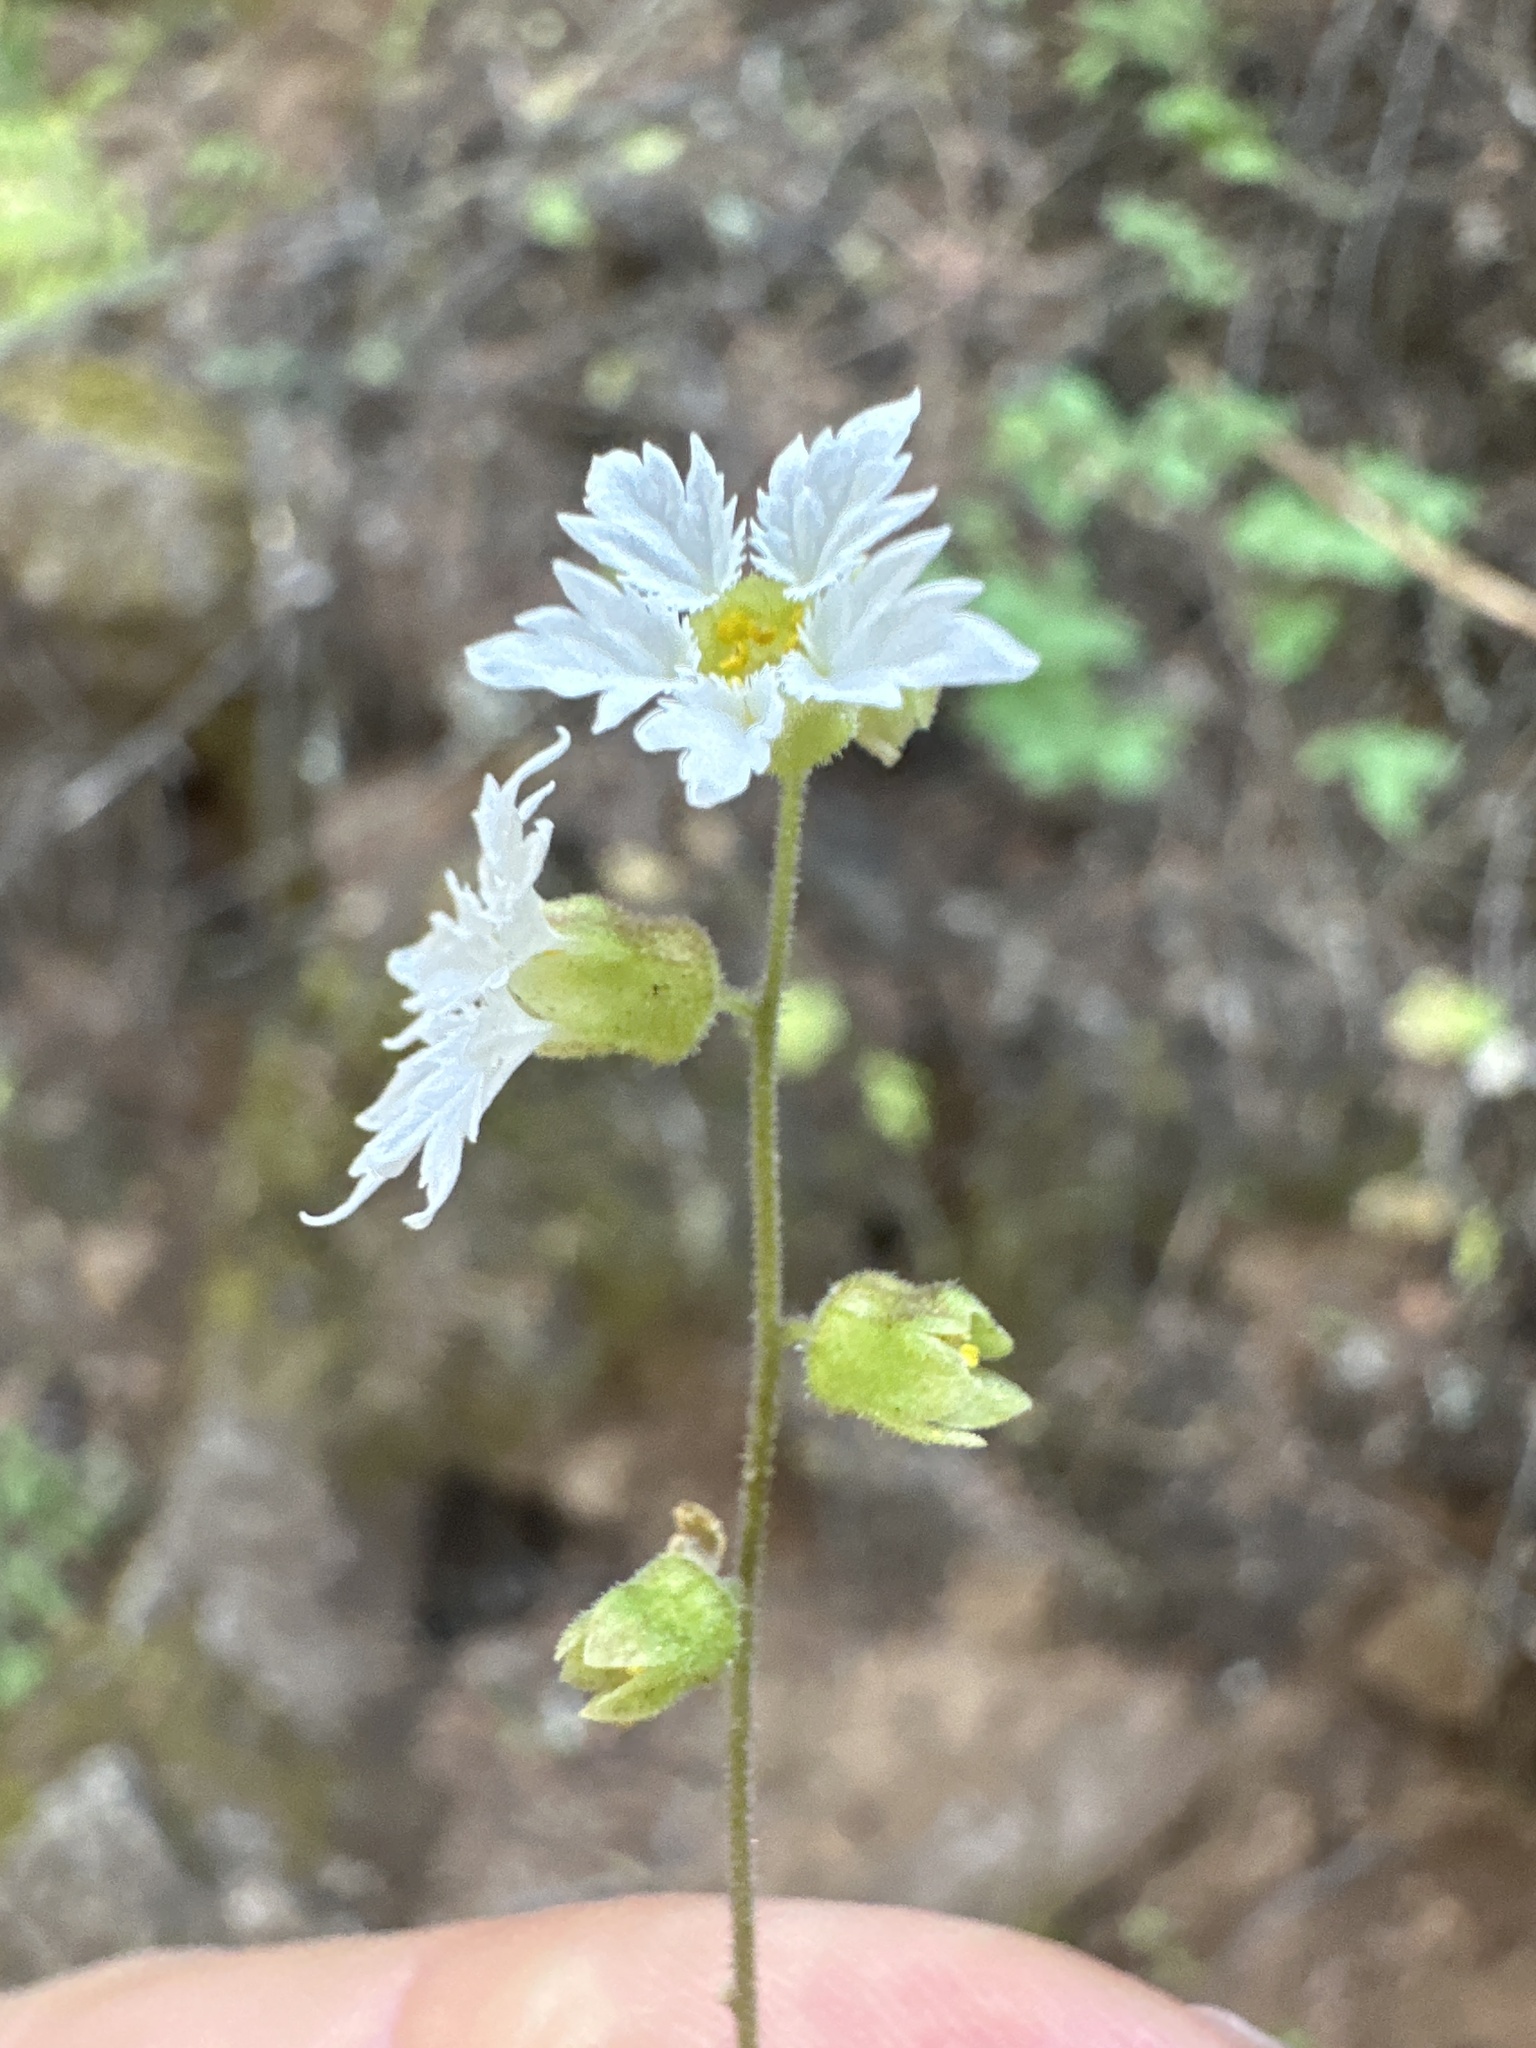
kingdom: Plantae
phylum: Tracheophyta
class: Magnoliopsida
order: Saxifragales
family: Saxifragaceae
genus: Lithophragma
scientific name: Lithophragma campanulatum
